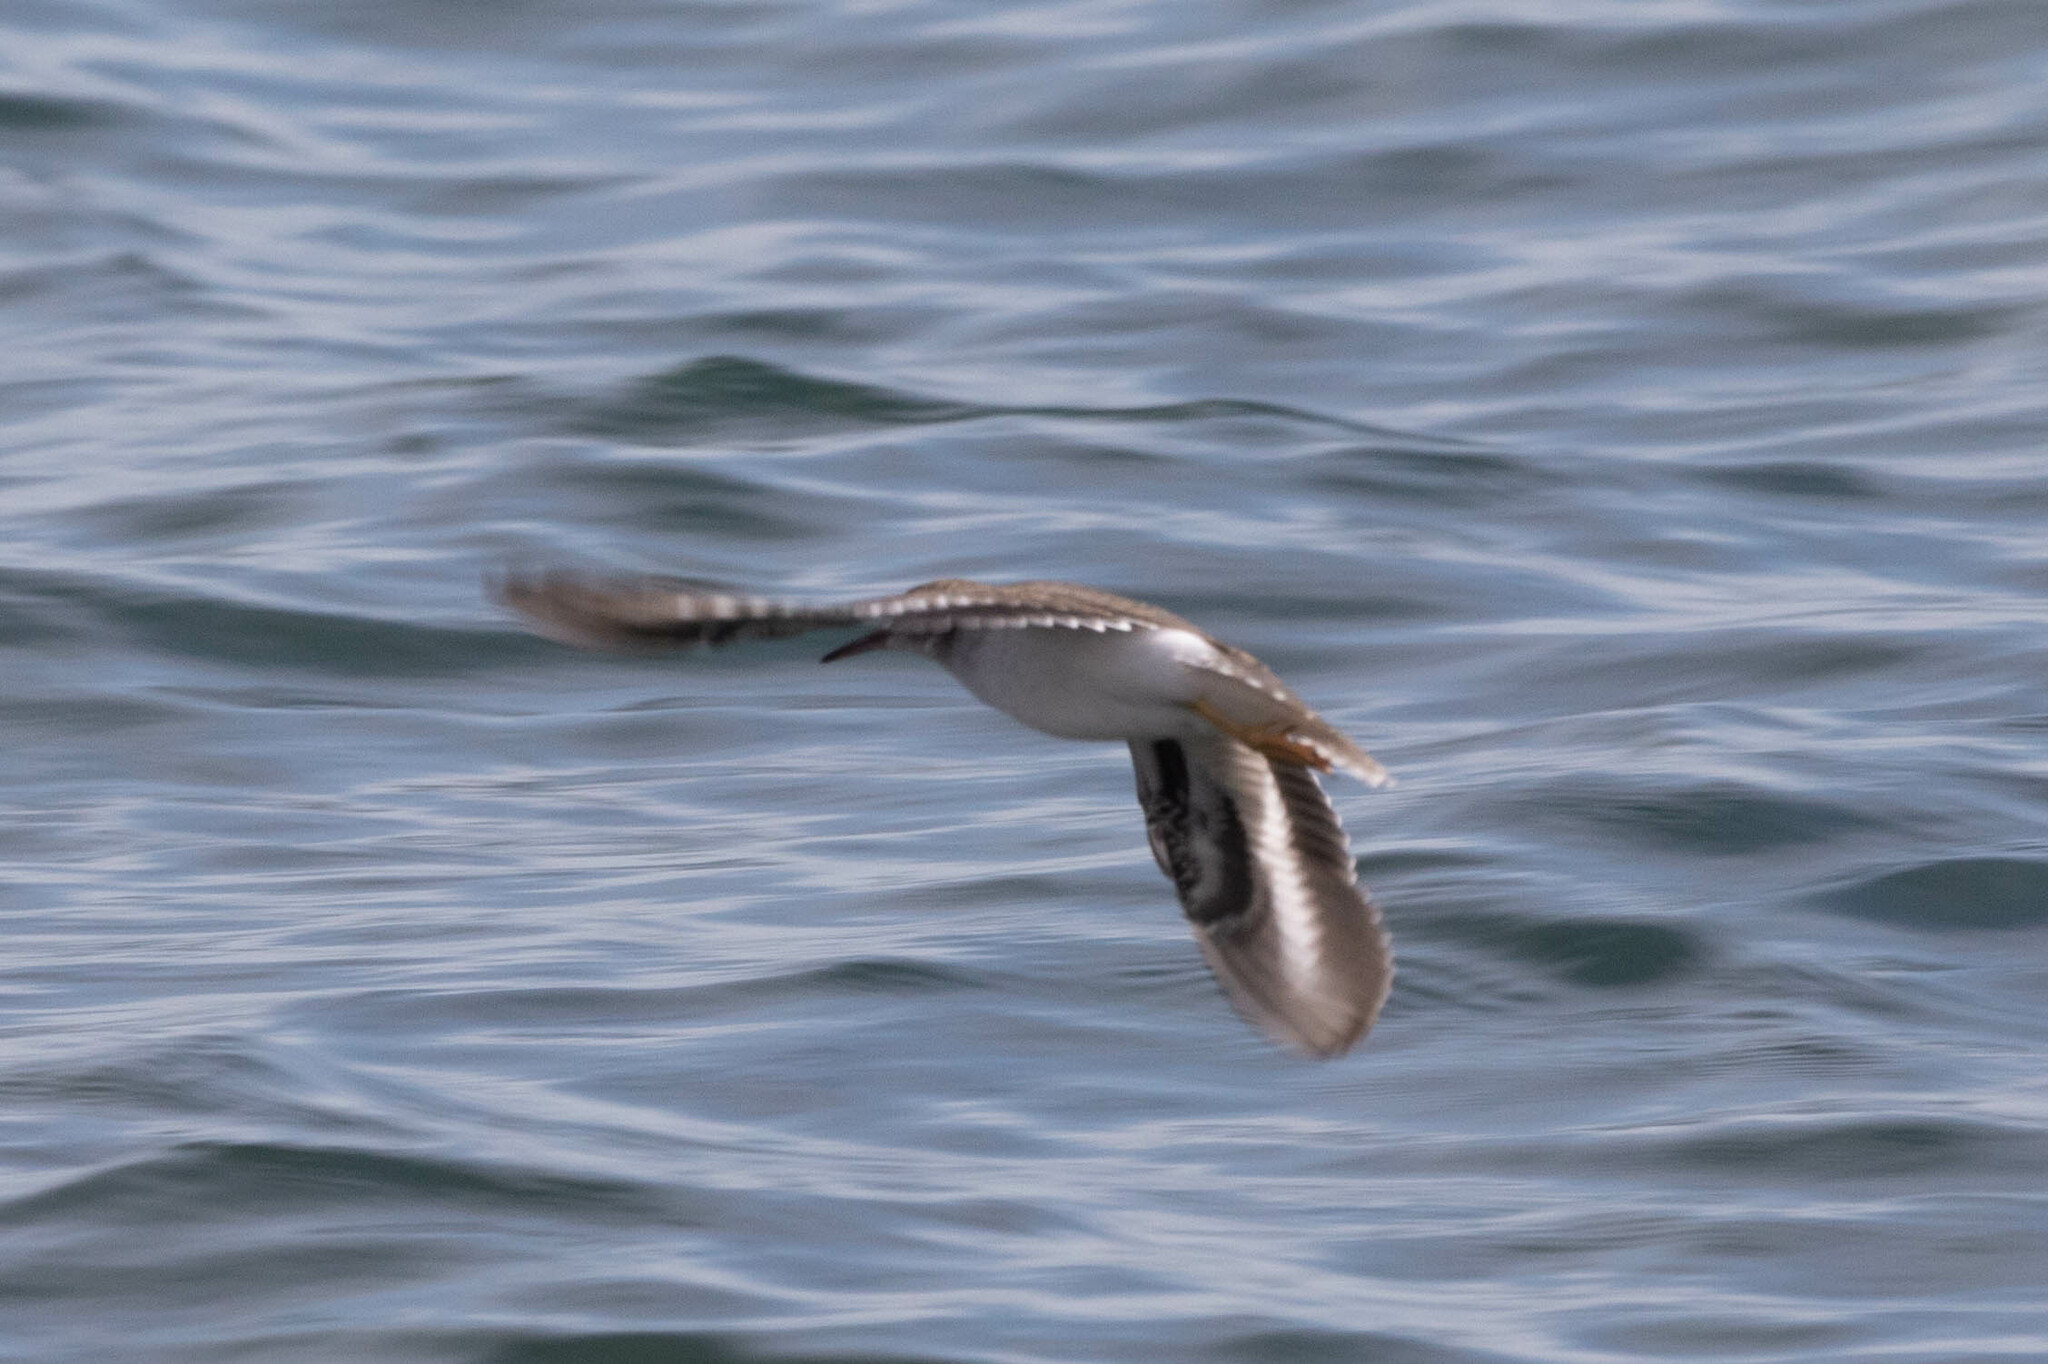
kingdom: Animalia
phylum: Chordata
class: Aves
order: Charadriiformes
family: Scolopacidae
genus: Actitis
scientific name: Actitis macularius
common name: Spotted sandpiper
